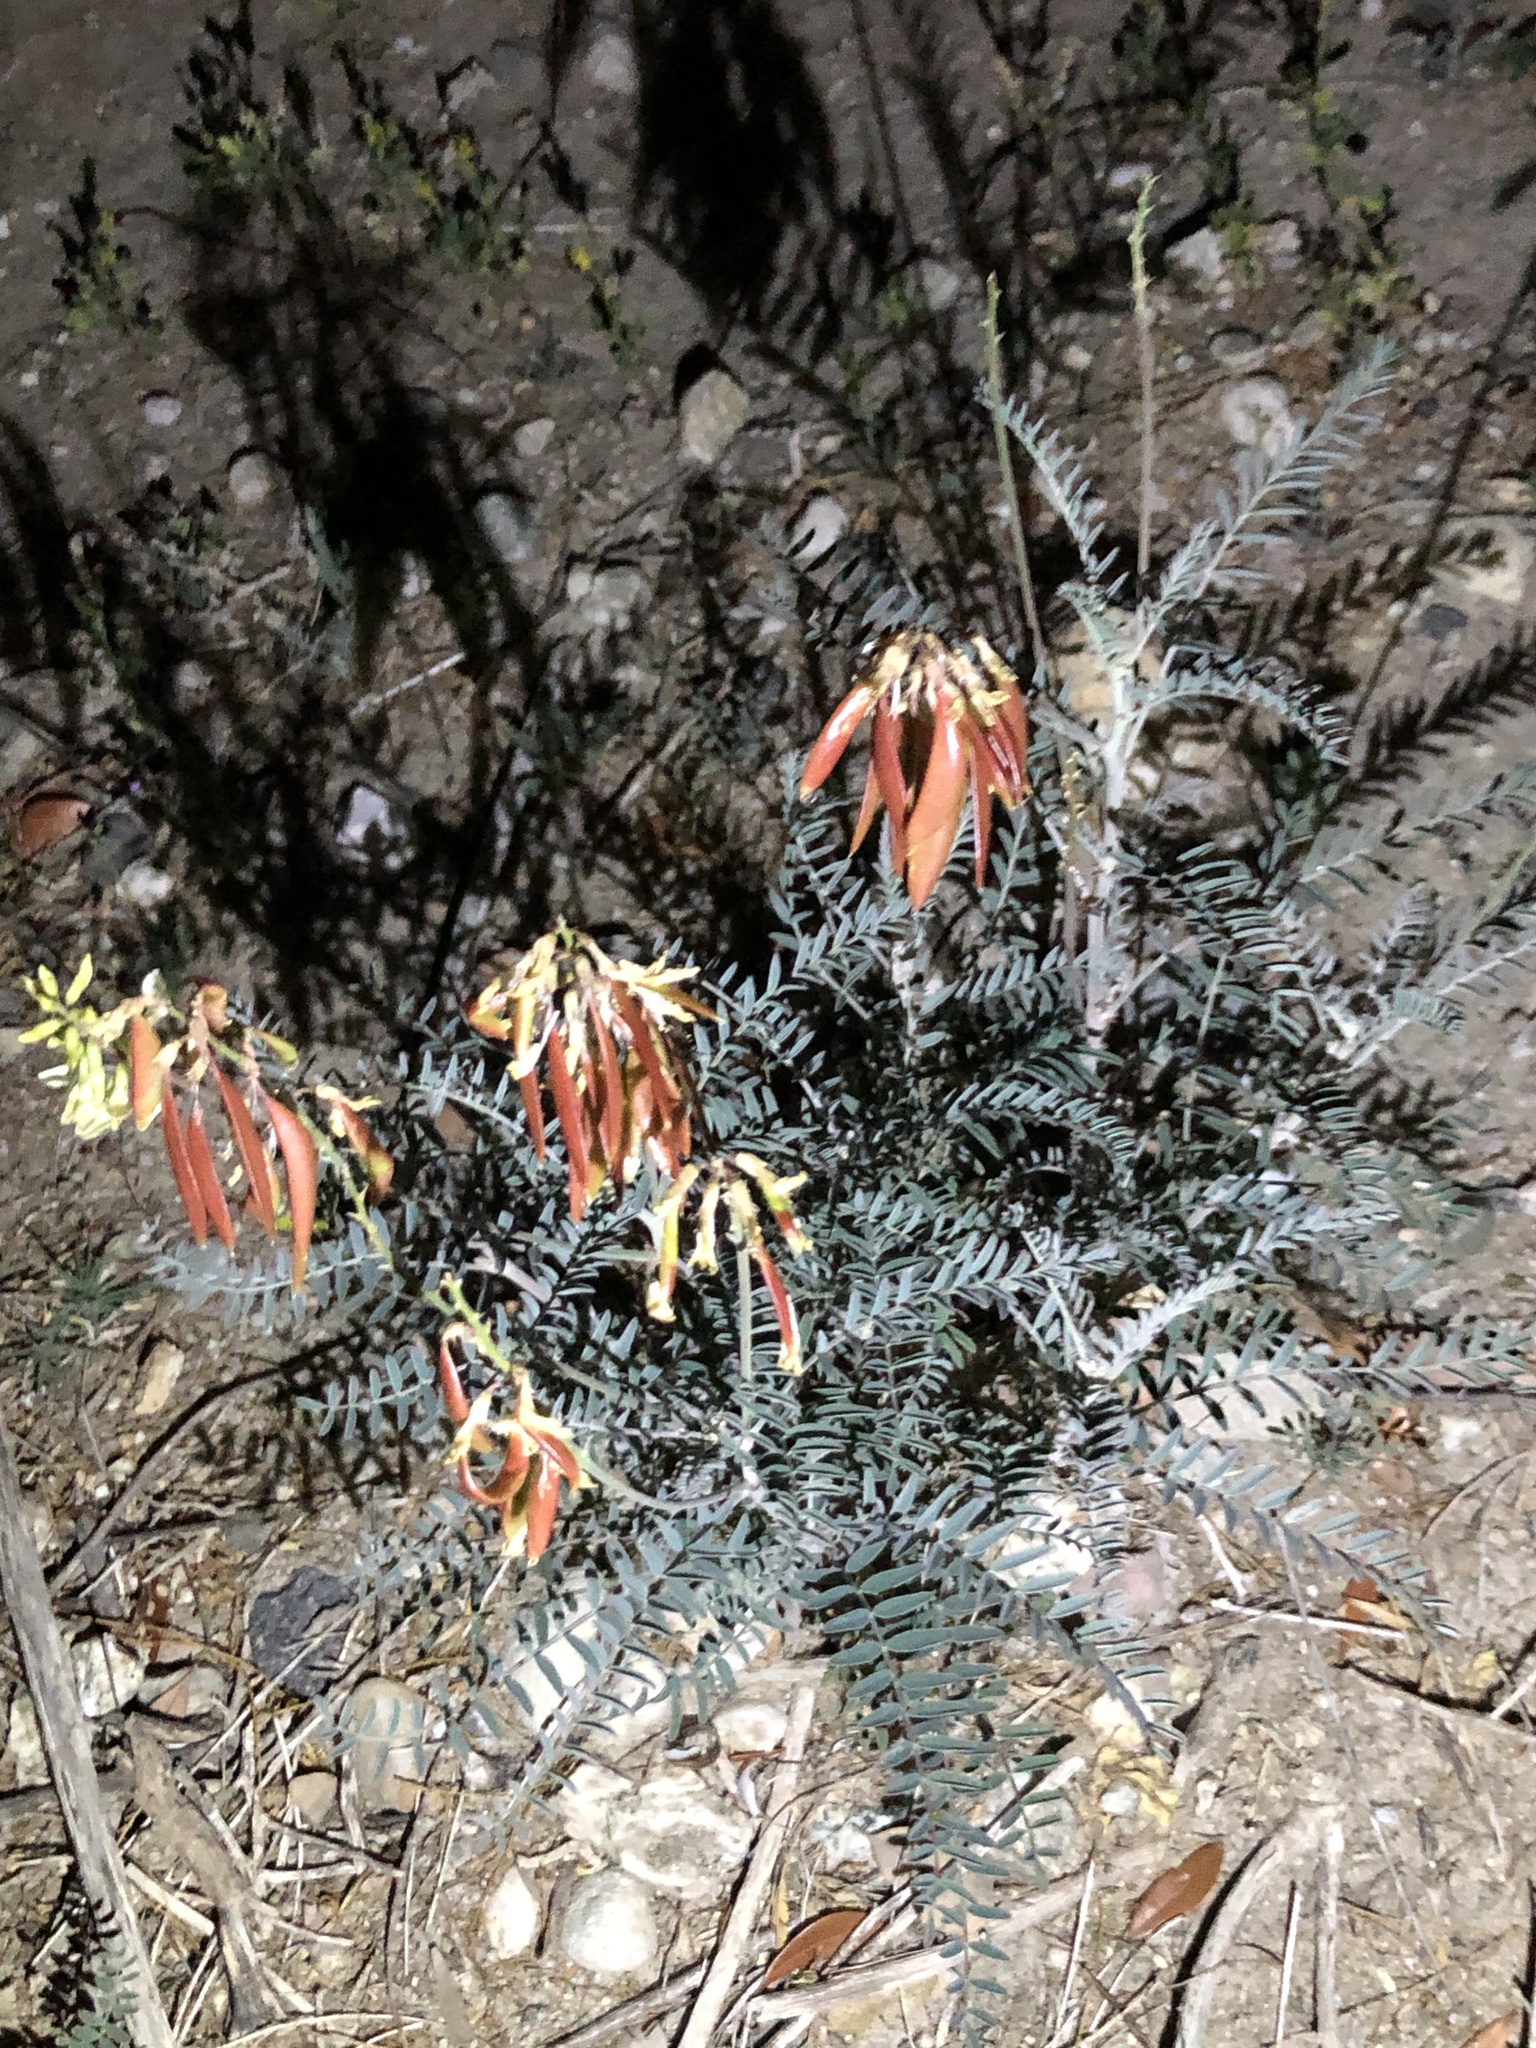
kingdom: Plantae
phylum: Tracheophyta
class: Magnoliopsida
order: Fabales
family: Fabaceae
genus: Astragalus
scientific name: Astragalus trichopodus
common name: Santa barbara milk-vetch
